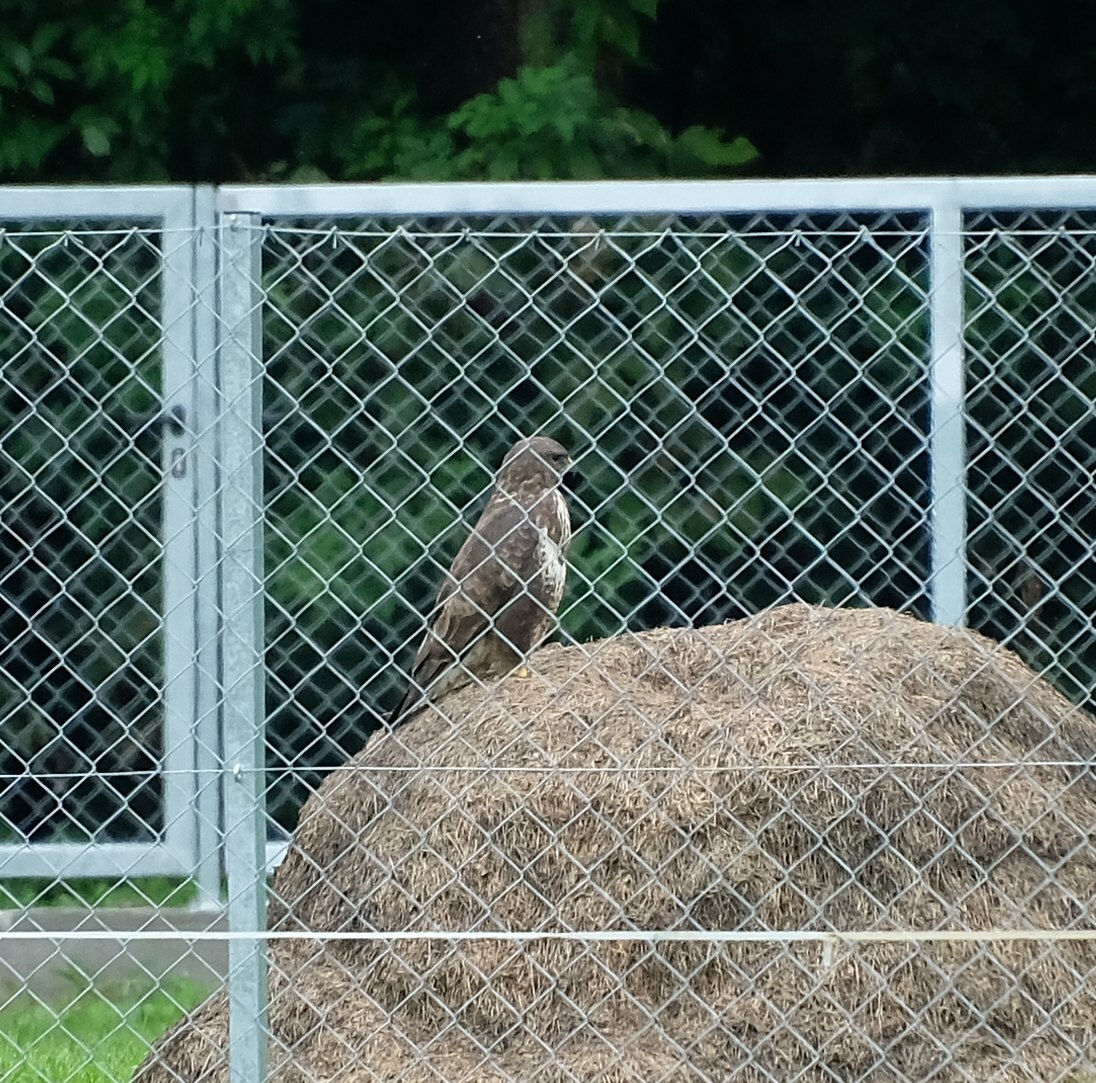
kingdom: Animalia
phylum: Chordata
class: Aves
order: Accipitriformes
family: Accipitridae
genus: Buteo
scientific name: Buteo buteo
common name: Common buzzard
